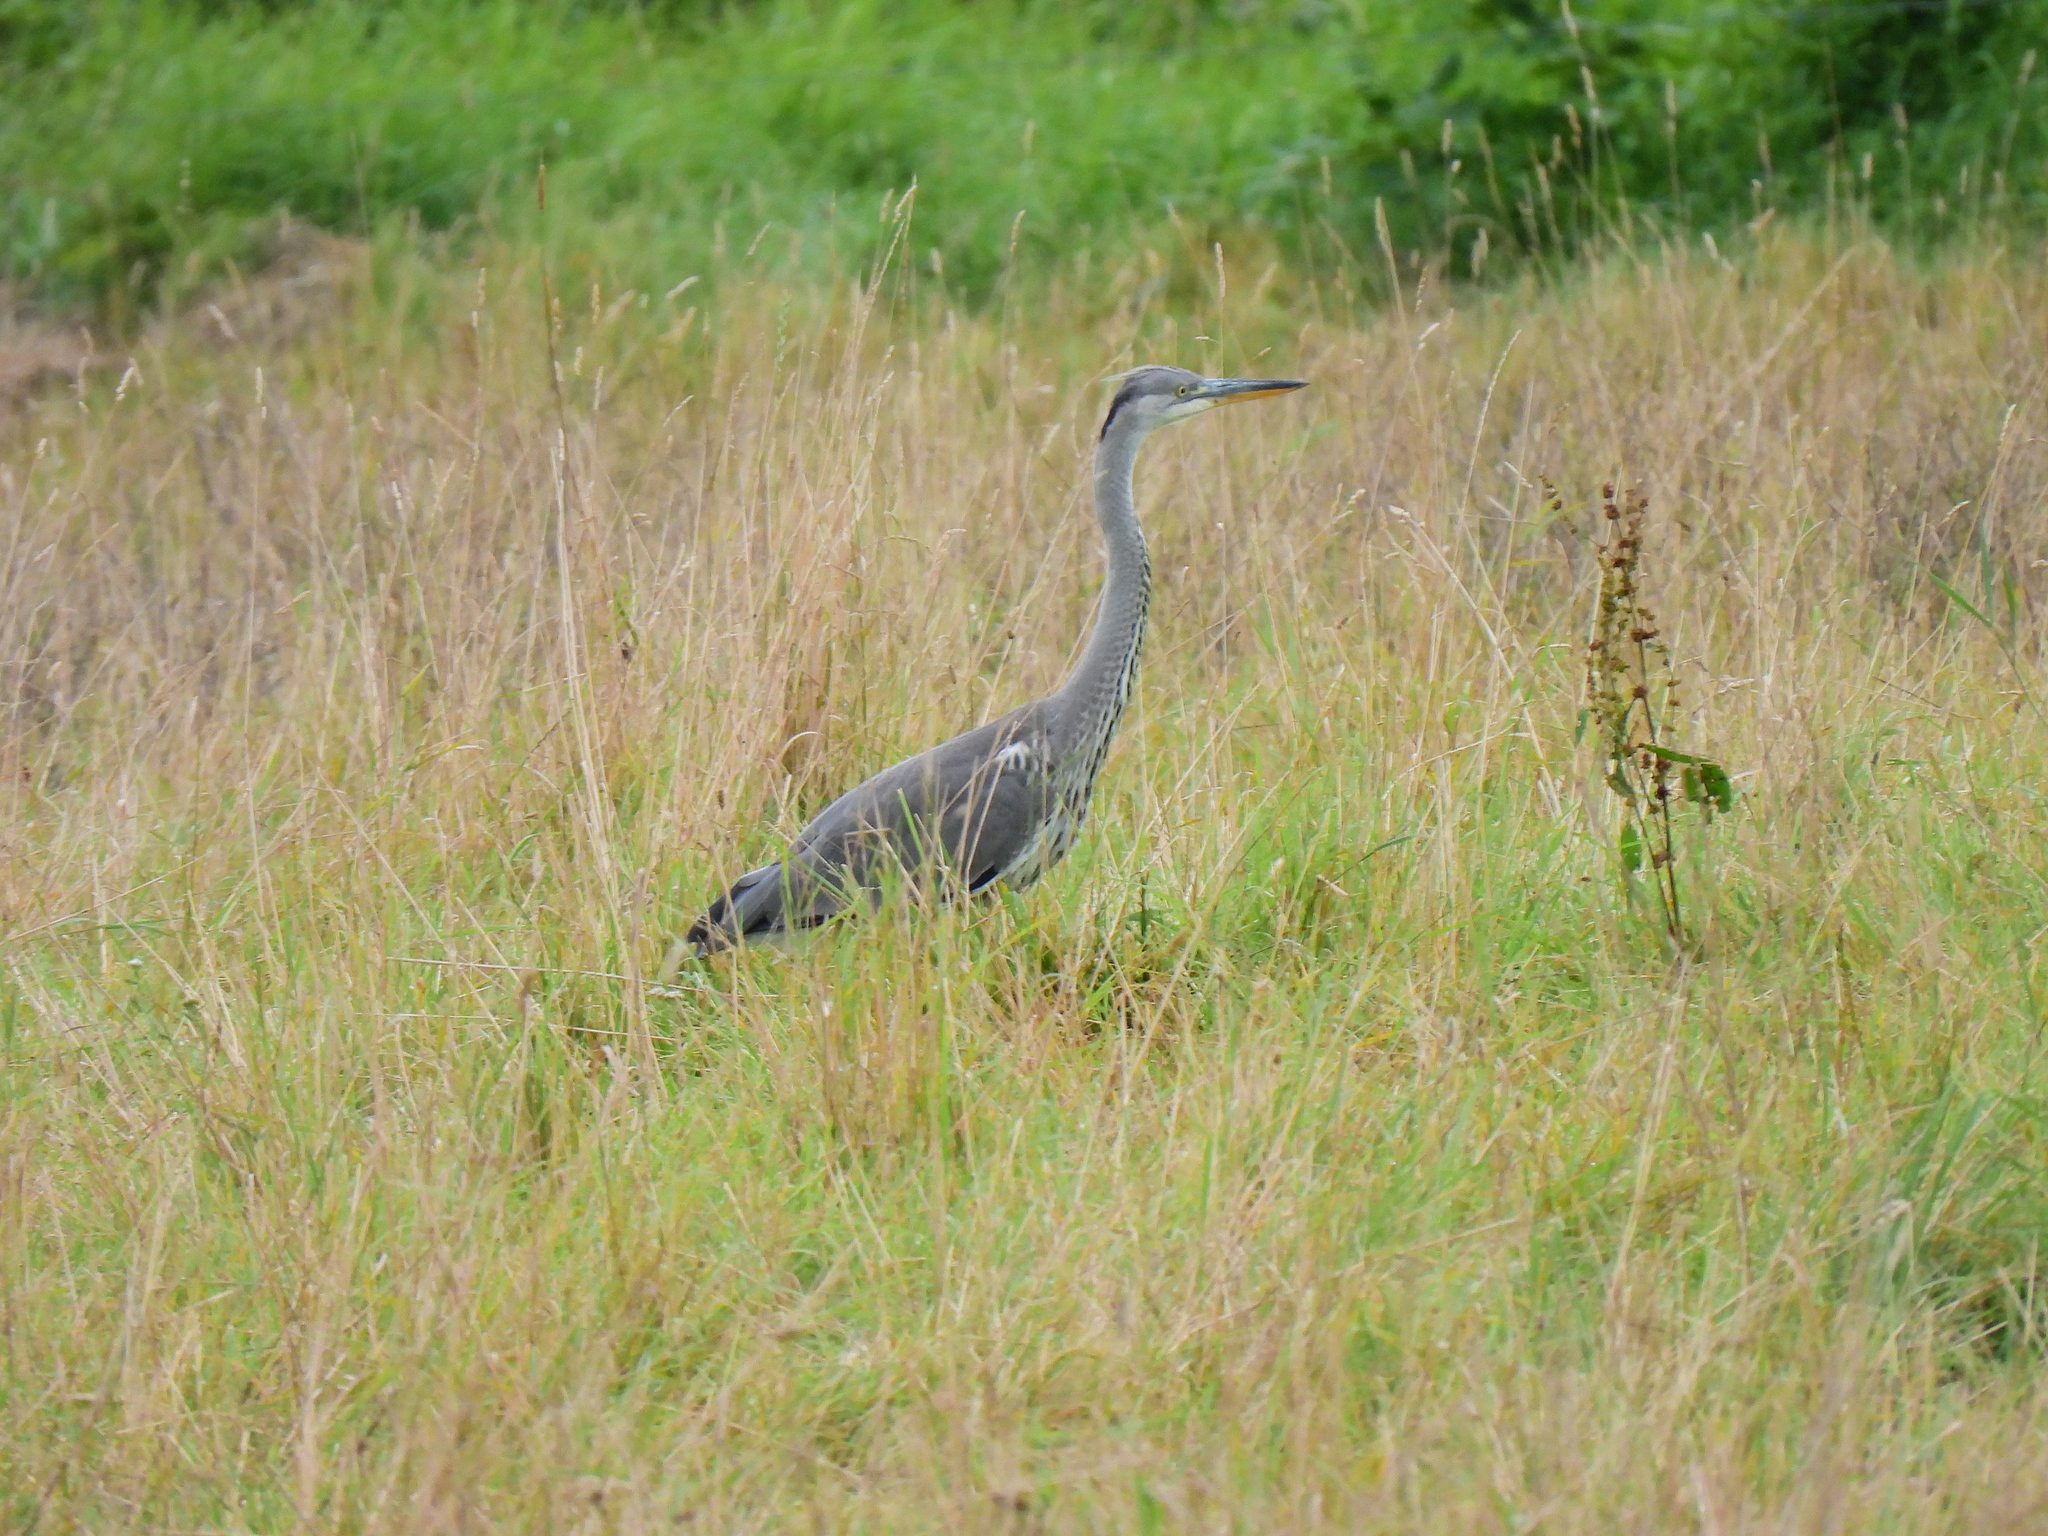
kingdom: Animalia
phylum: Chordata
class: Aves
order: Pelecaniformes
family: Ardeidae
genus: Ardea
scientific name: Ardea cinerea
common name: Grey heron
